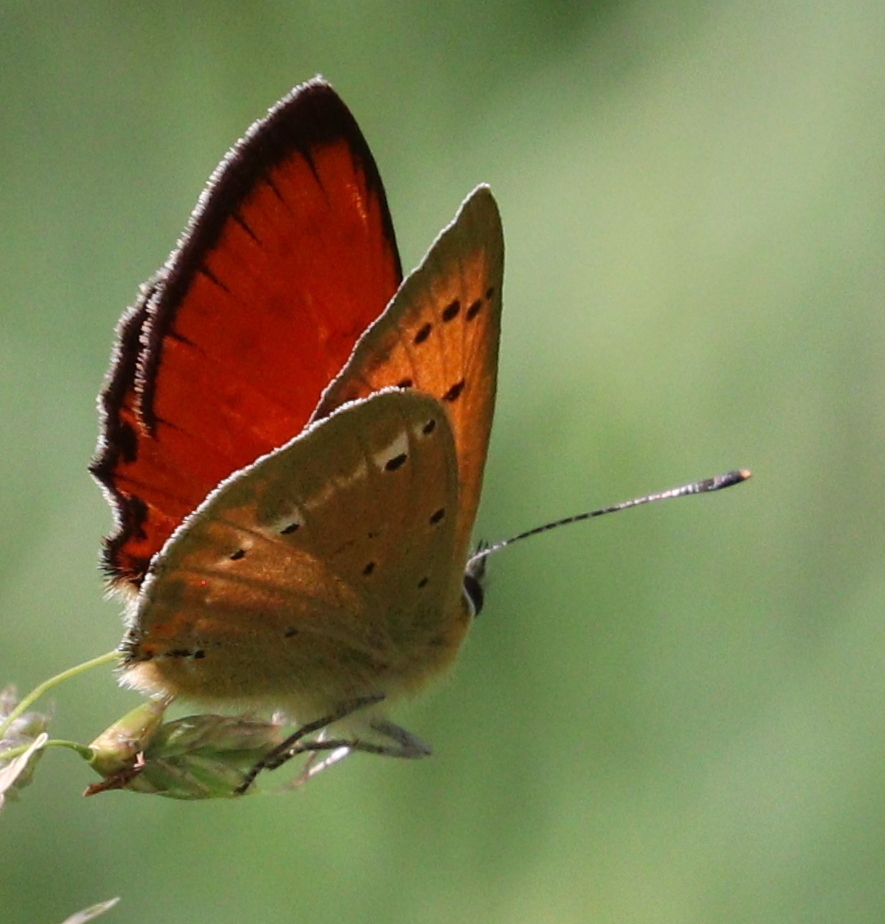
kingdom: Animalia
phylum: Arthropoda
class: Insecta
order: Lepidoptera
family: Lycaenidae
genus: Lycaena
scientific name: Lycaena virgaureae
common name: Scarce copper
